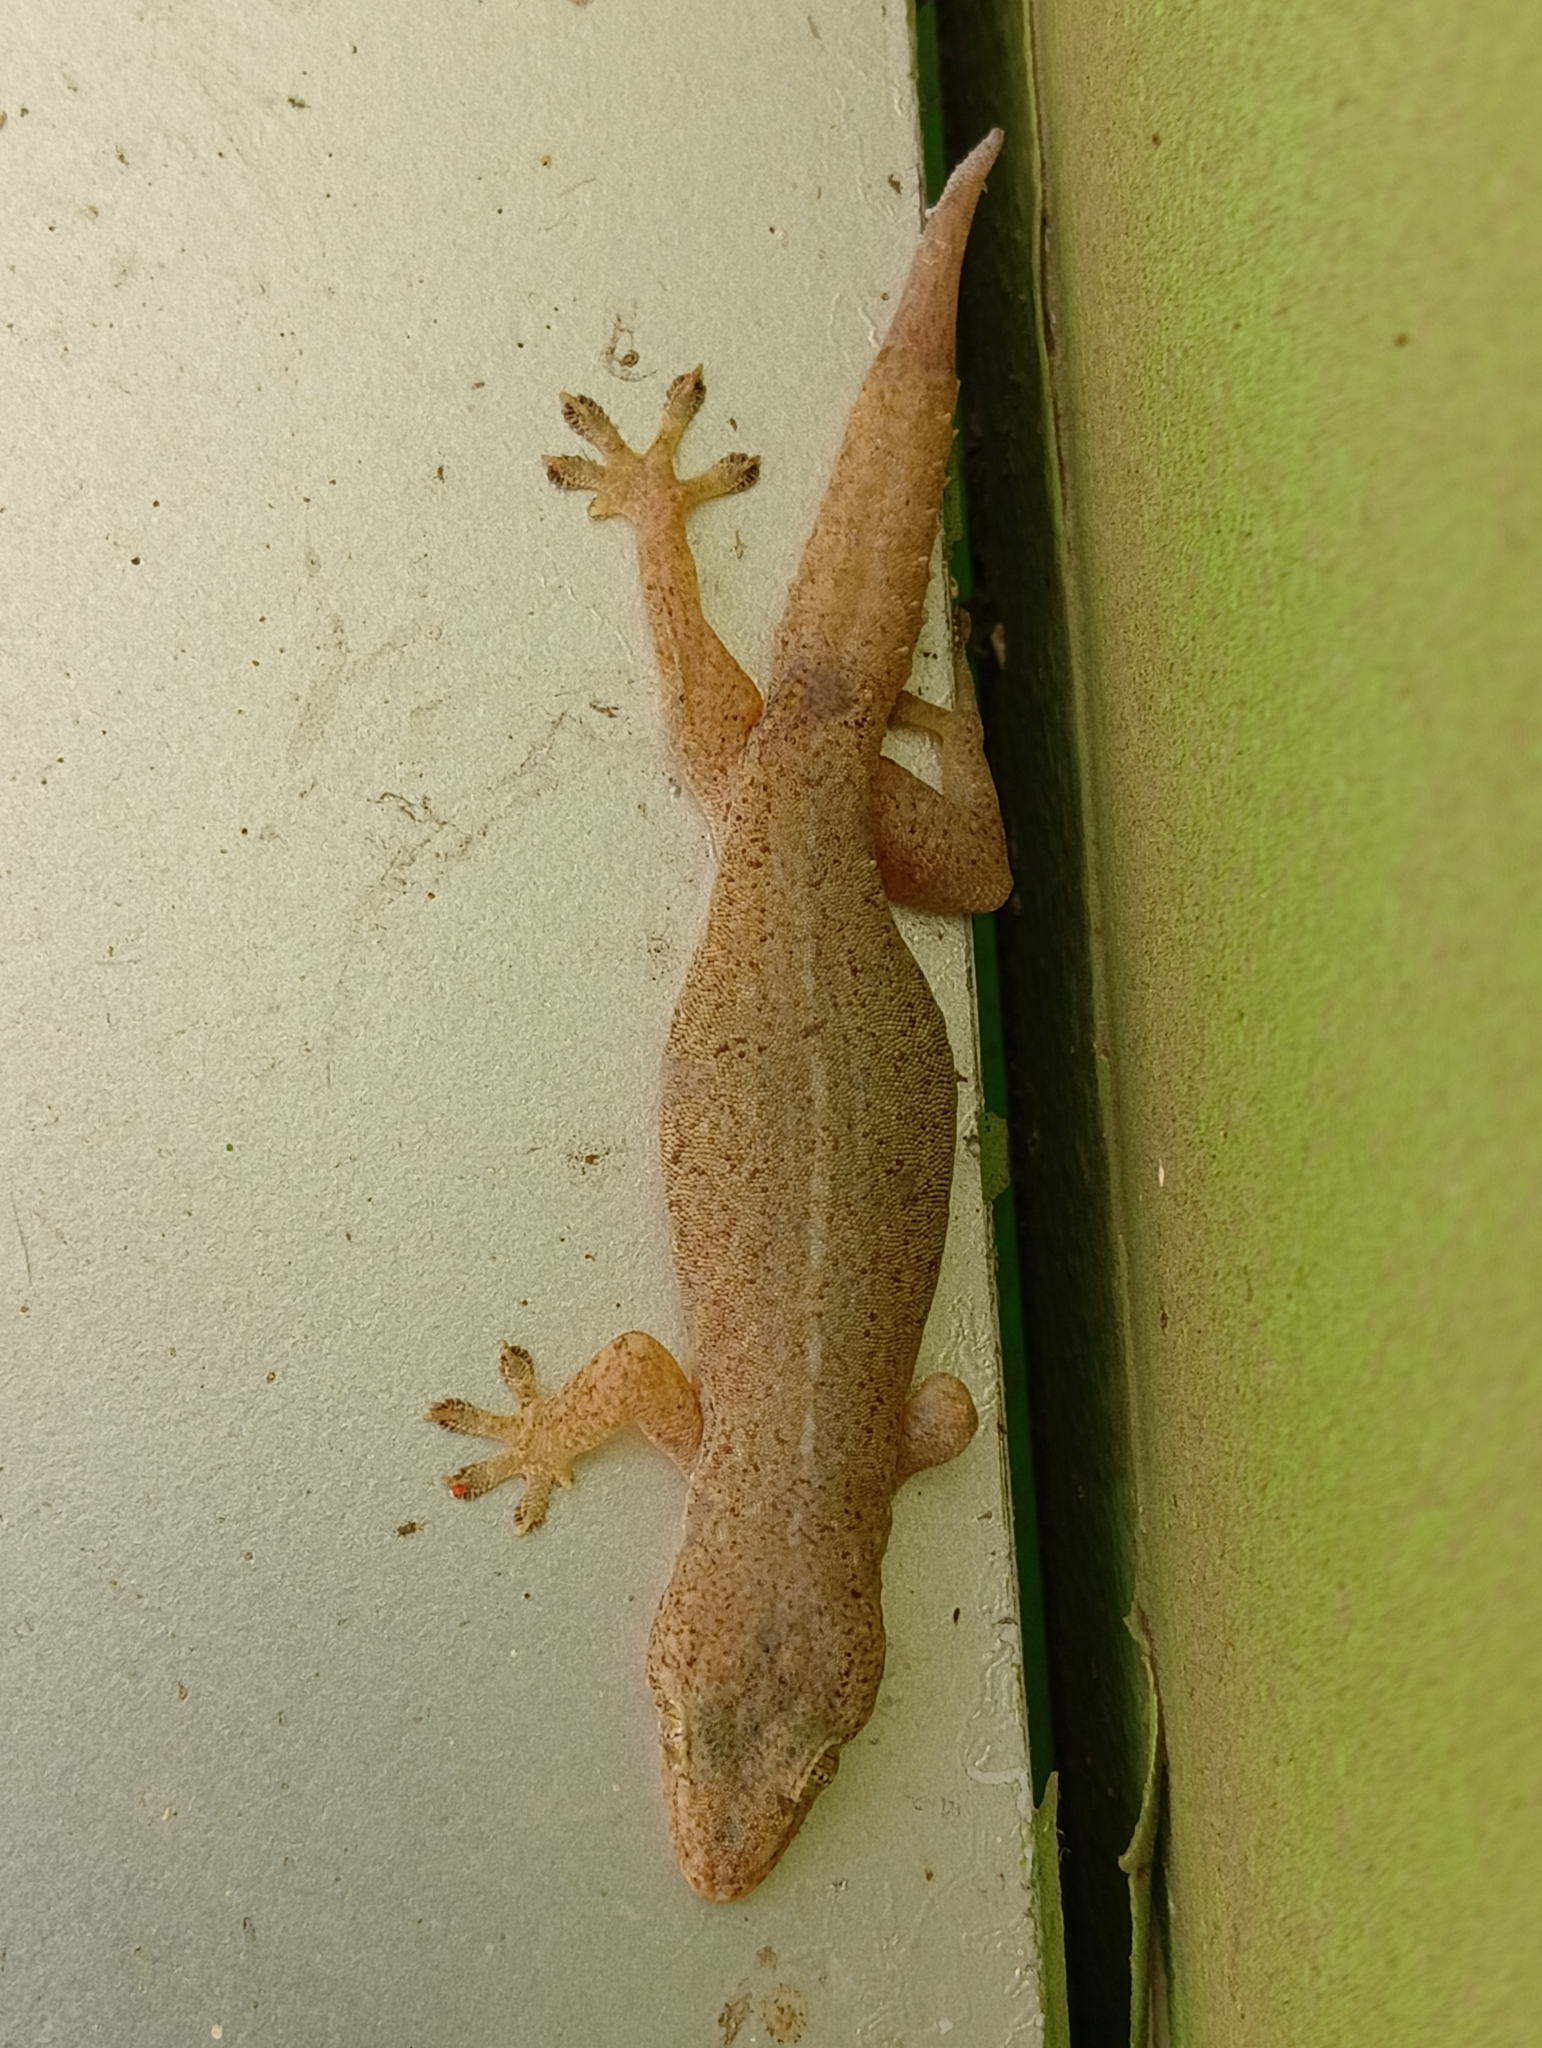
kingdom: Animalia
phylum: Chordata
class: Squamata
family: Gekkonidae
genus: Hemidactylus
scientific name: Hemidactylus frenatus
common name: Common house gecko
